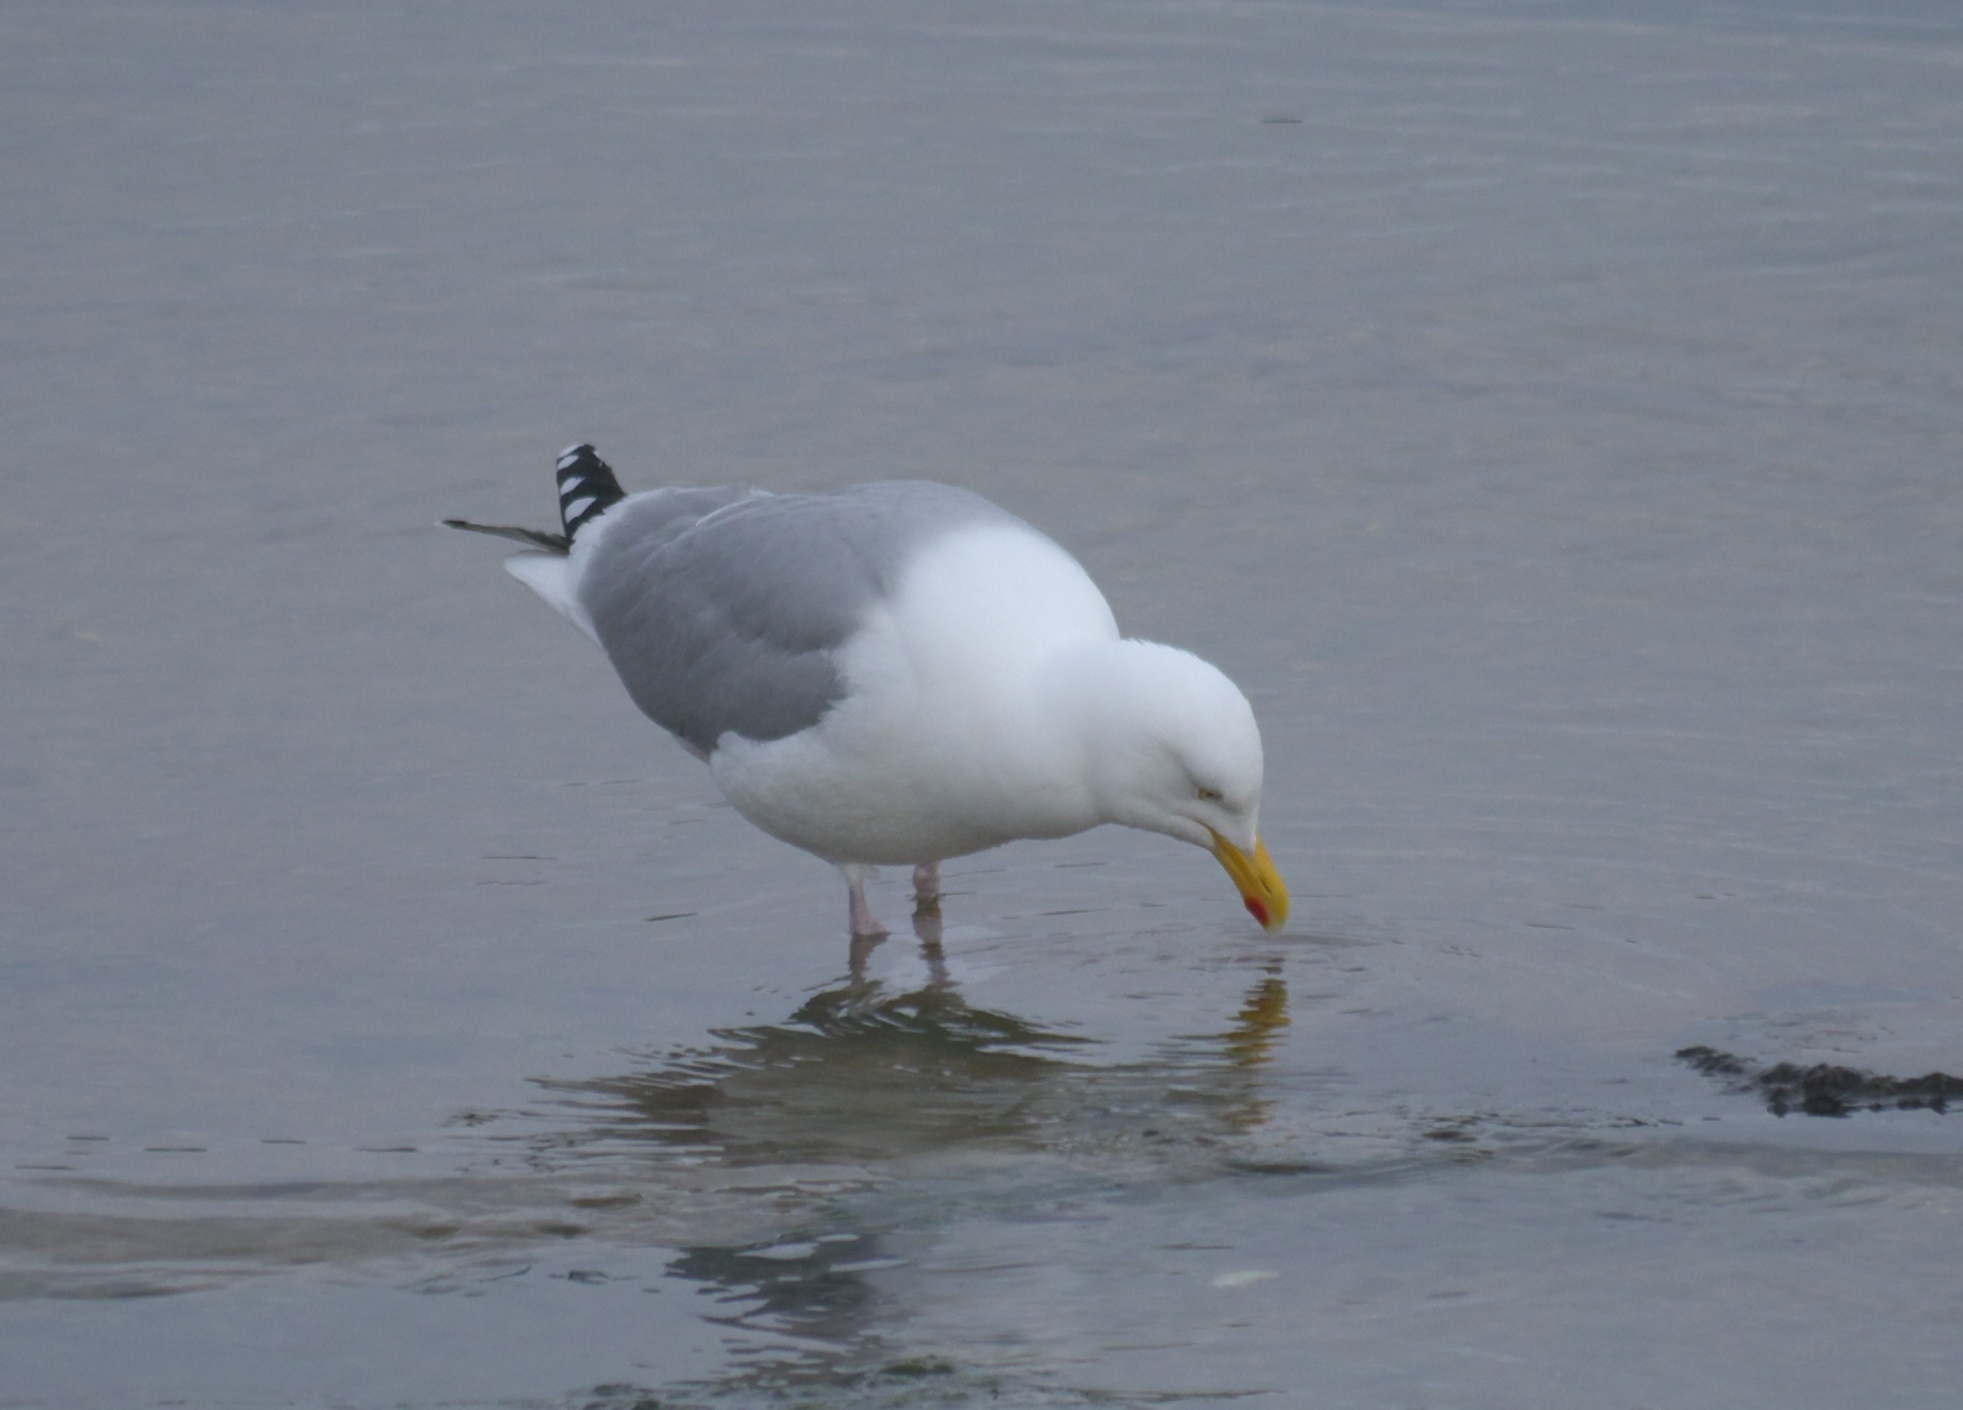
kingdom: Animalia
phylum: Chordata
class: Aves
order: Charadriiformes
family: Laridae
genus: Larus
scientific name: Larus argentatus
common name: Herring gull
